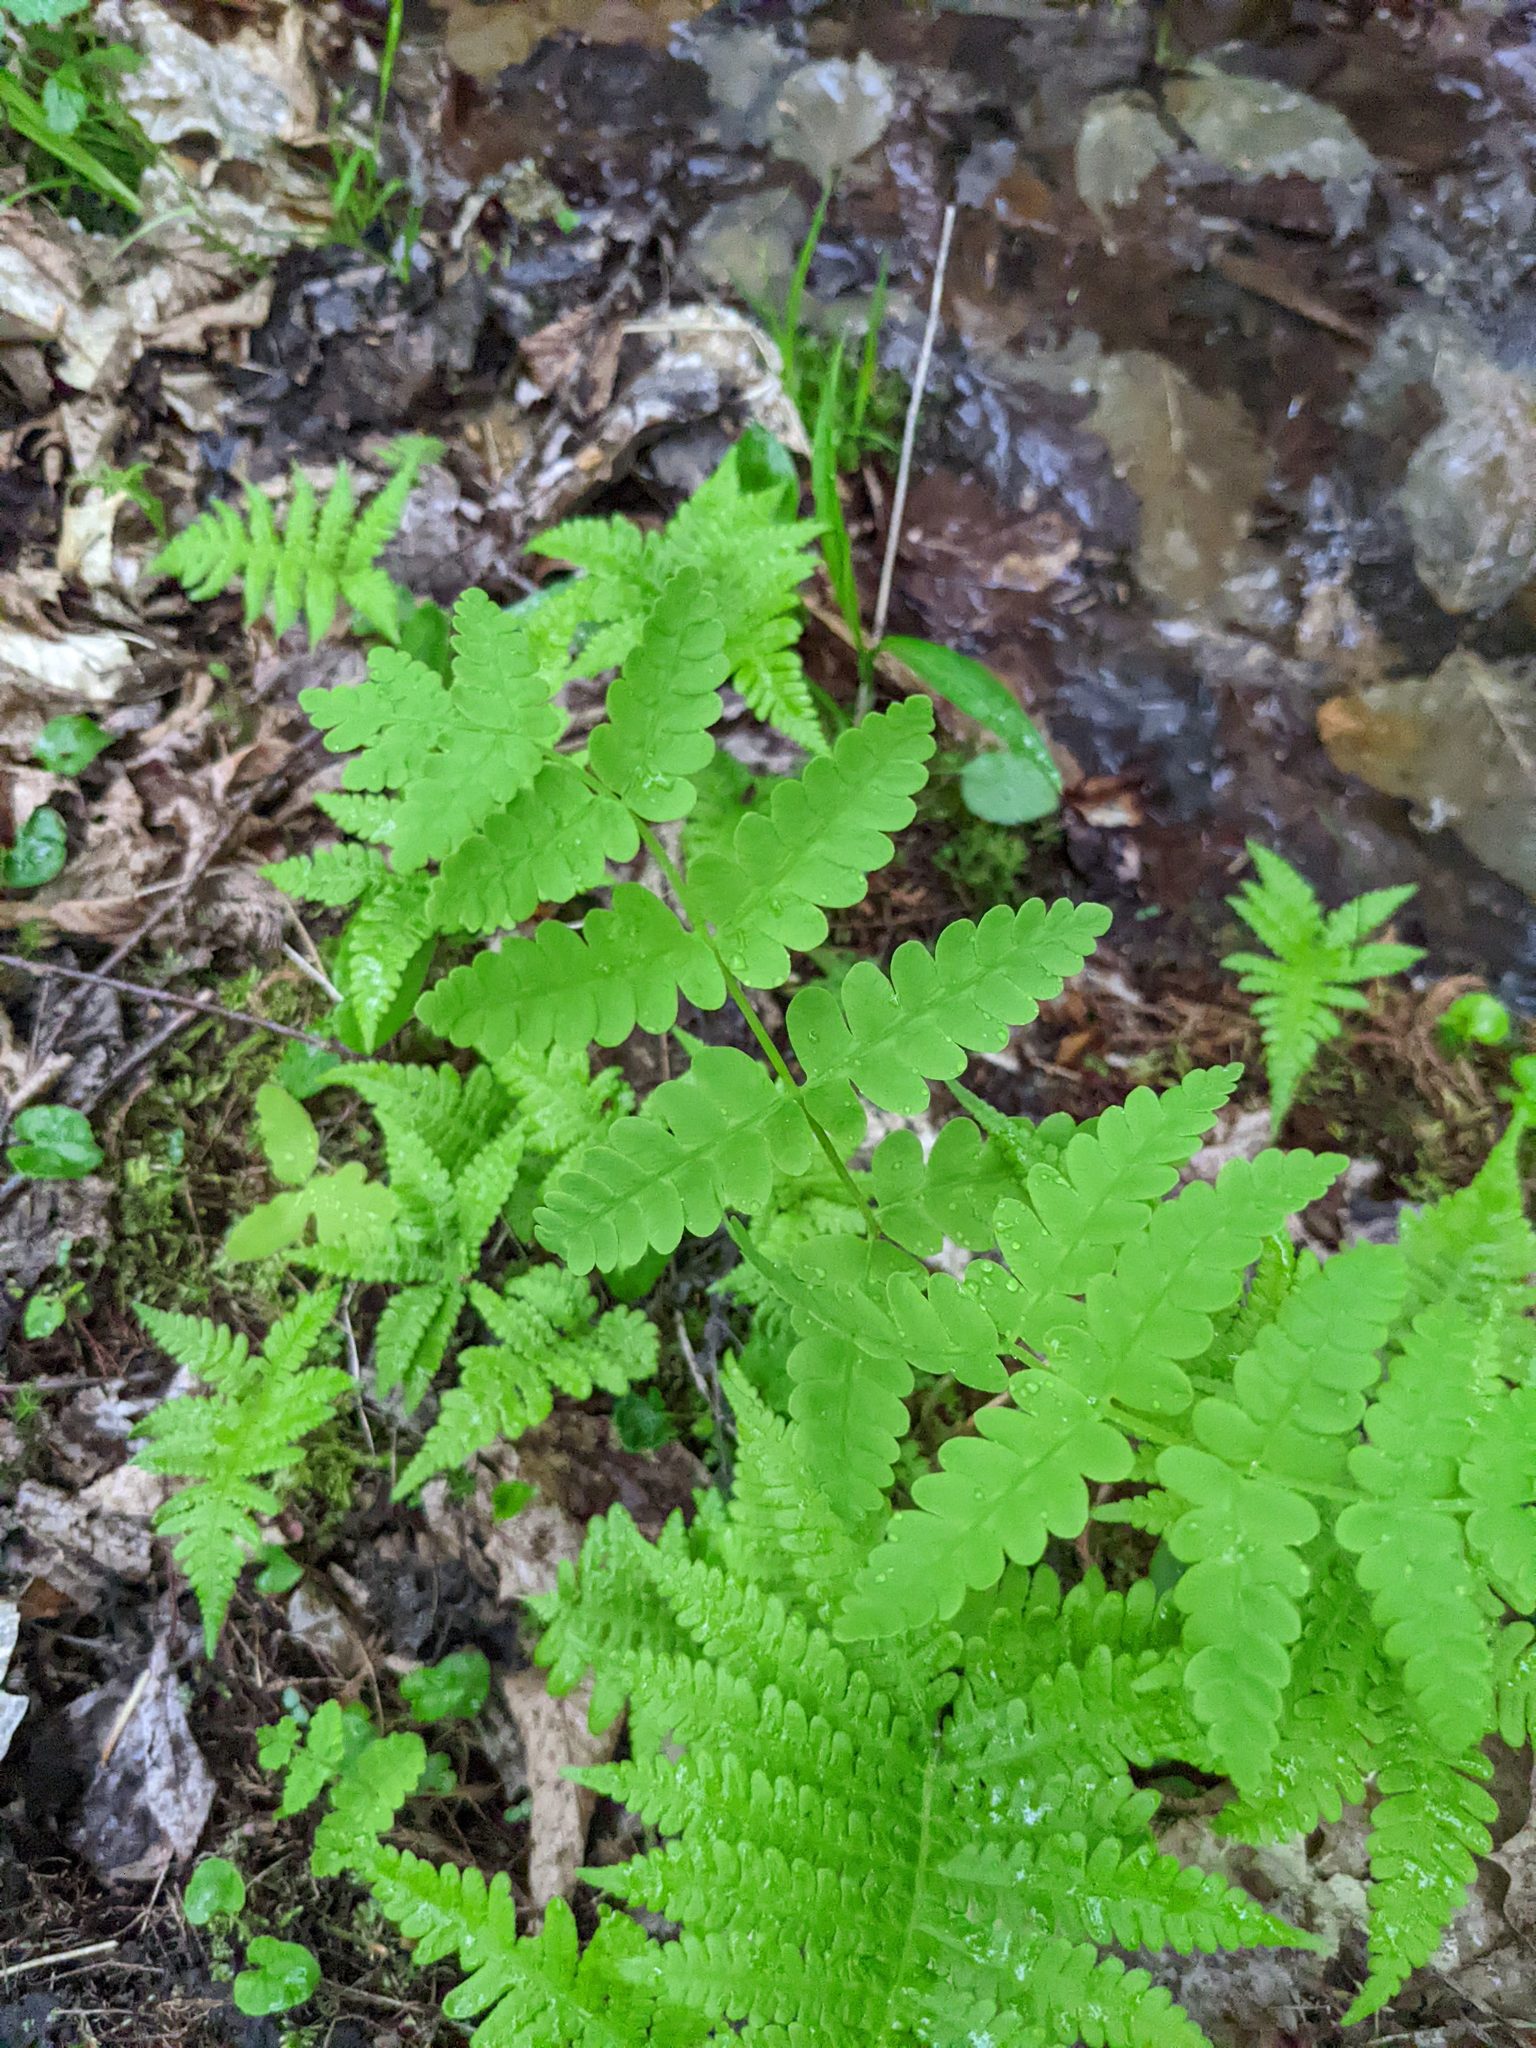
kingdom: Plantae
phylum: Tracheophyta
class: Polypodiopsida
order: Osmundales
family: Osmundaceae
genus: Claytosmunda
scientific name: Claytosmunda claytoniana
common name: Clayton's fern
